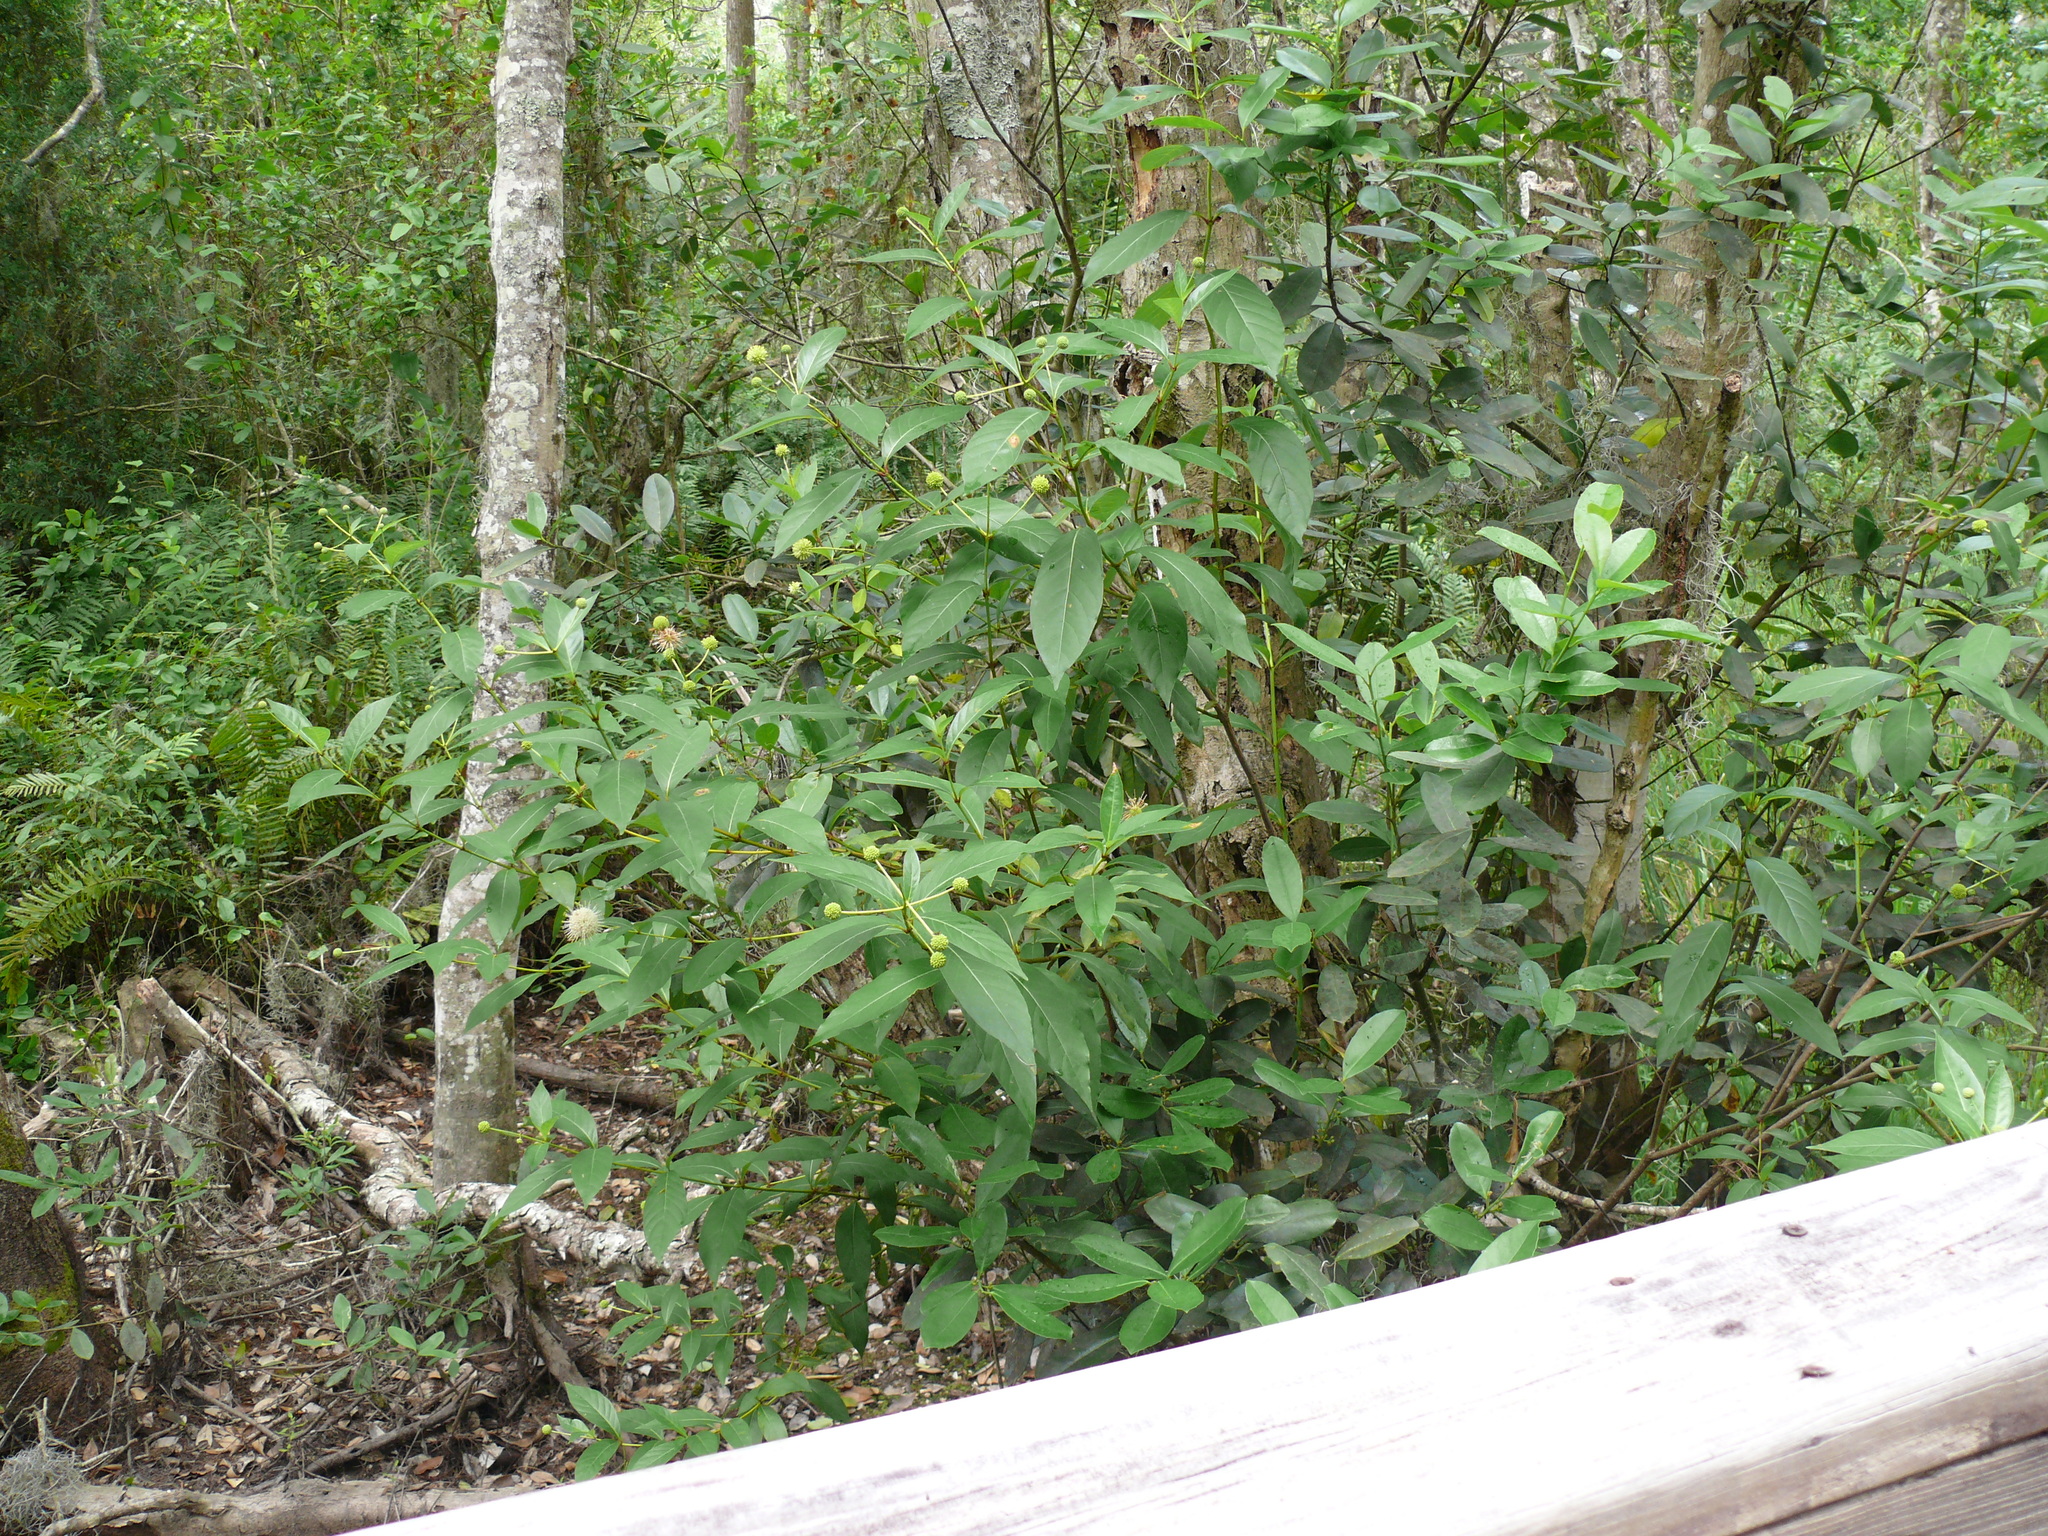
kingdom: Plantae
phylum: Tracheophyta
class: Magnoliopsida
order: Gentianales
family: Rubiaceae
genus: Cephalanthus
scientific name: Cephalanthus occidentalis
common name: Button-willow
